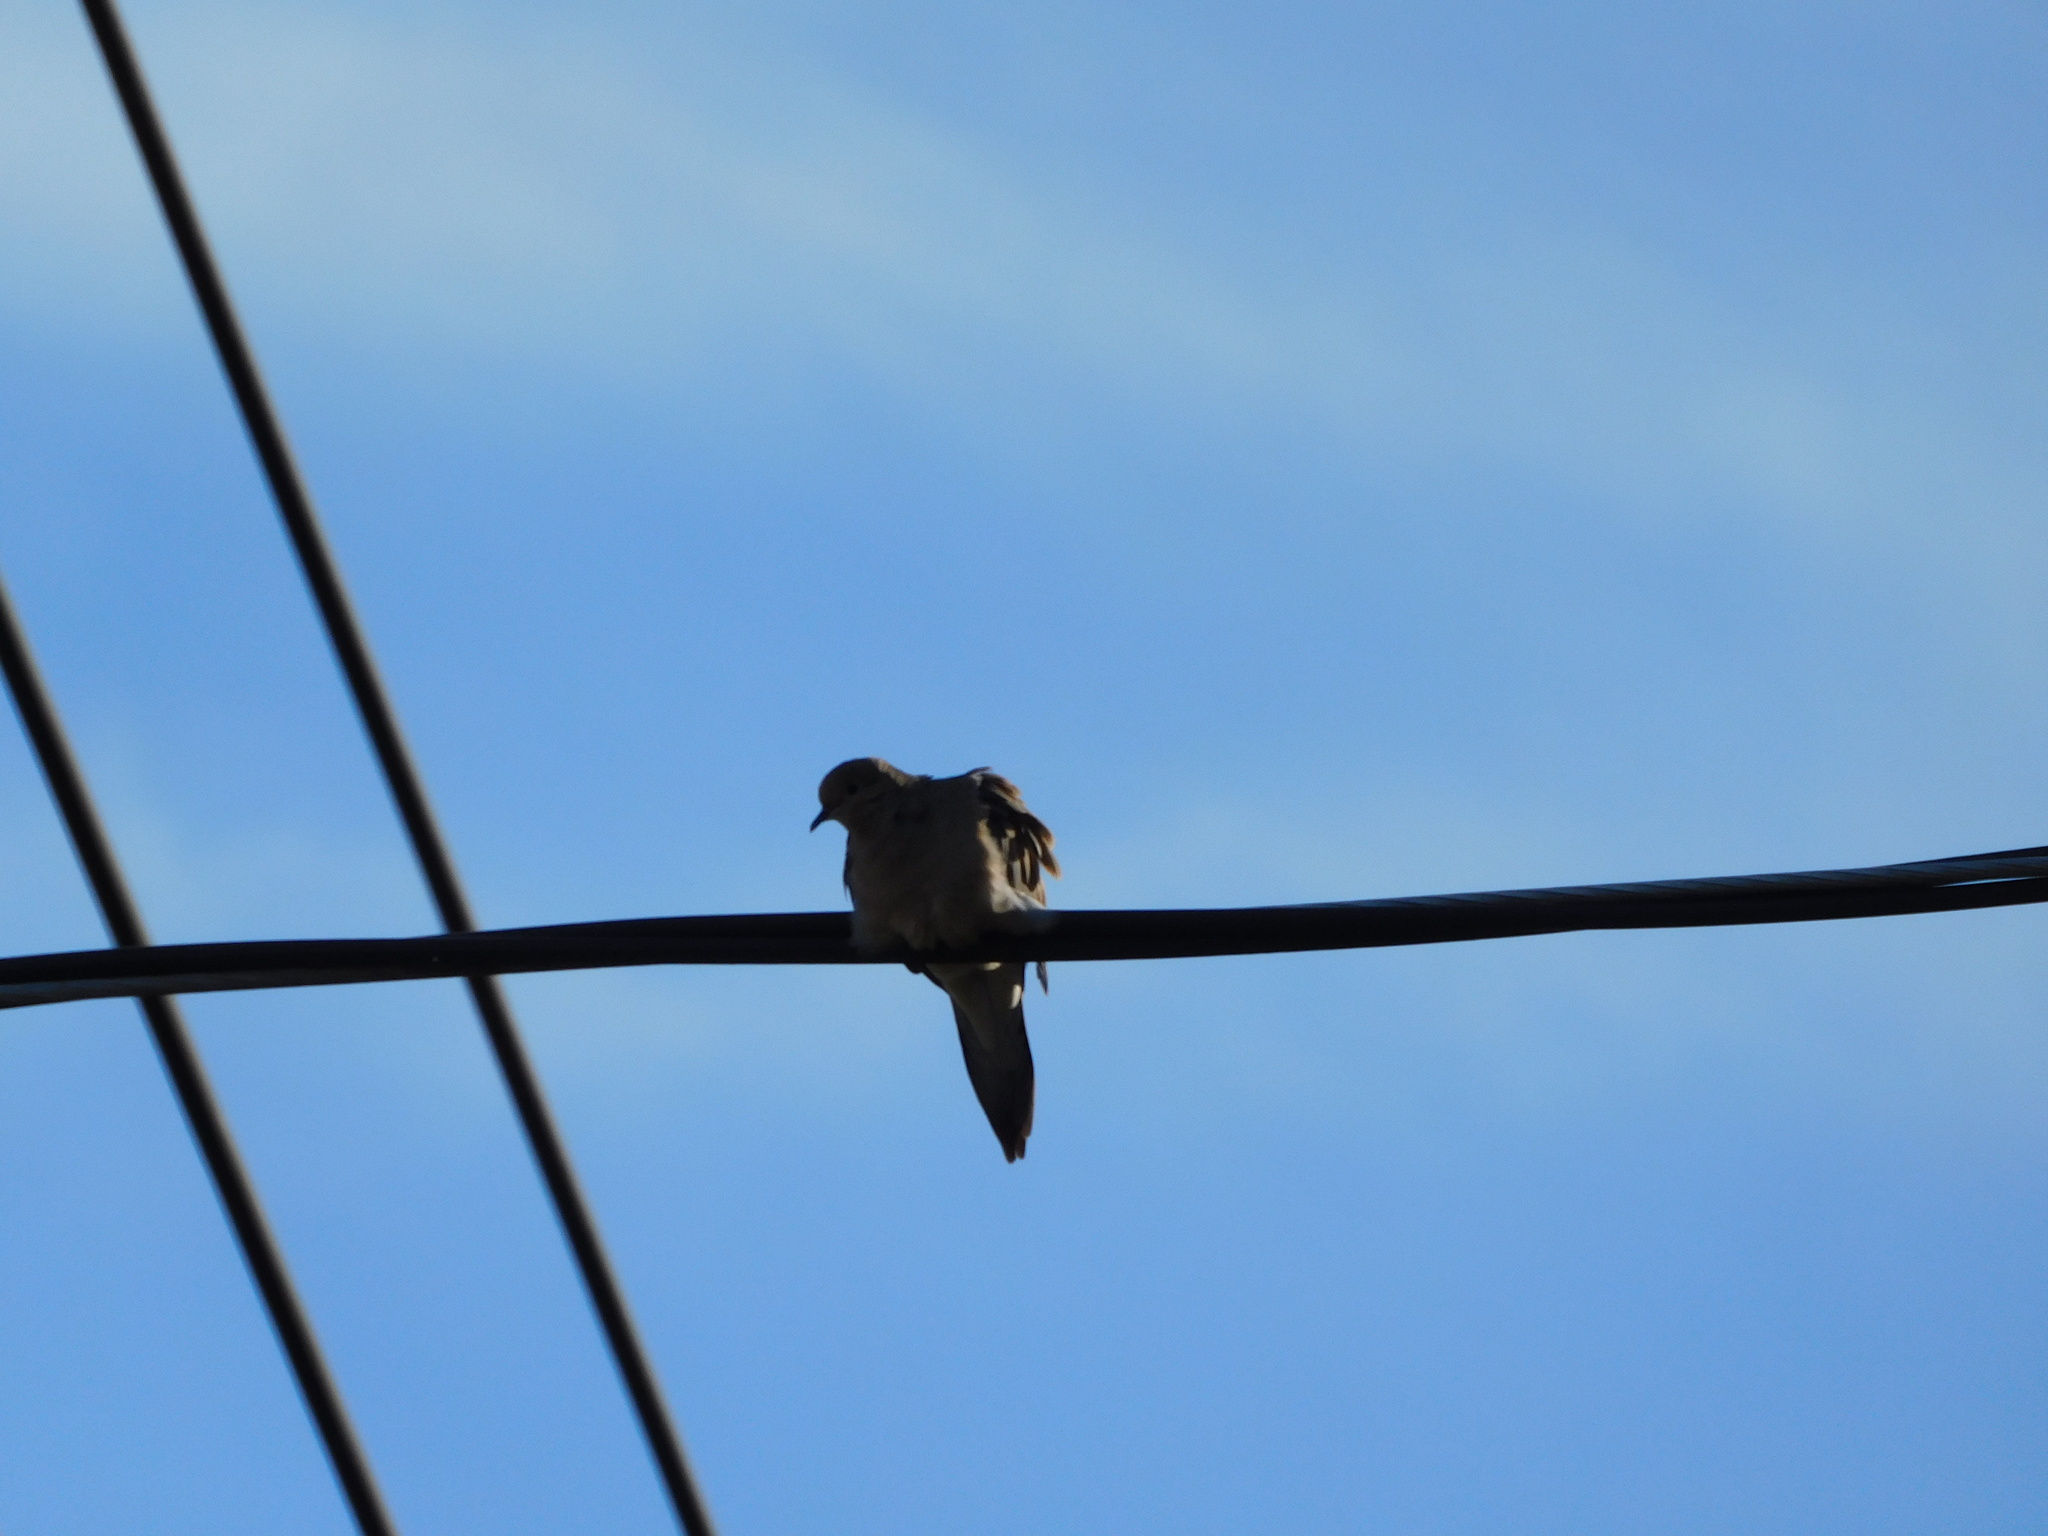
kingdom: Animalia
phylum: Chordata
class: Aves
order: Columbiformes
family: Columbidae
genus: Zenaida
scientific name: Zenaida macroura
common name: Mourning dove
